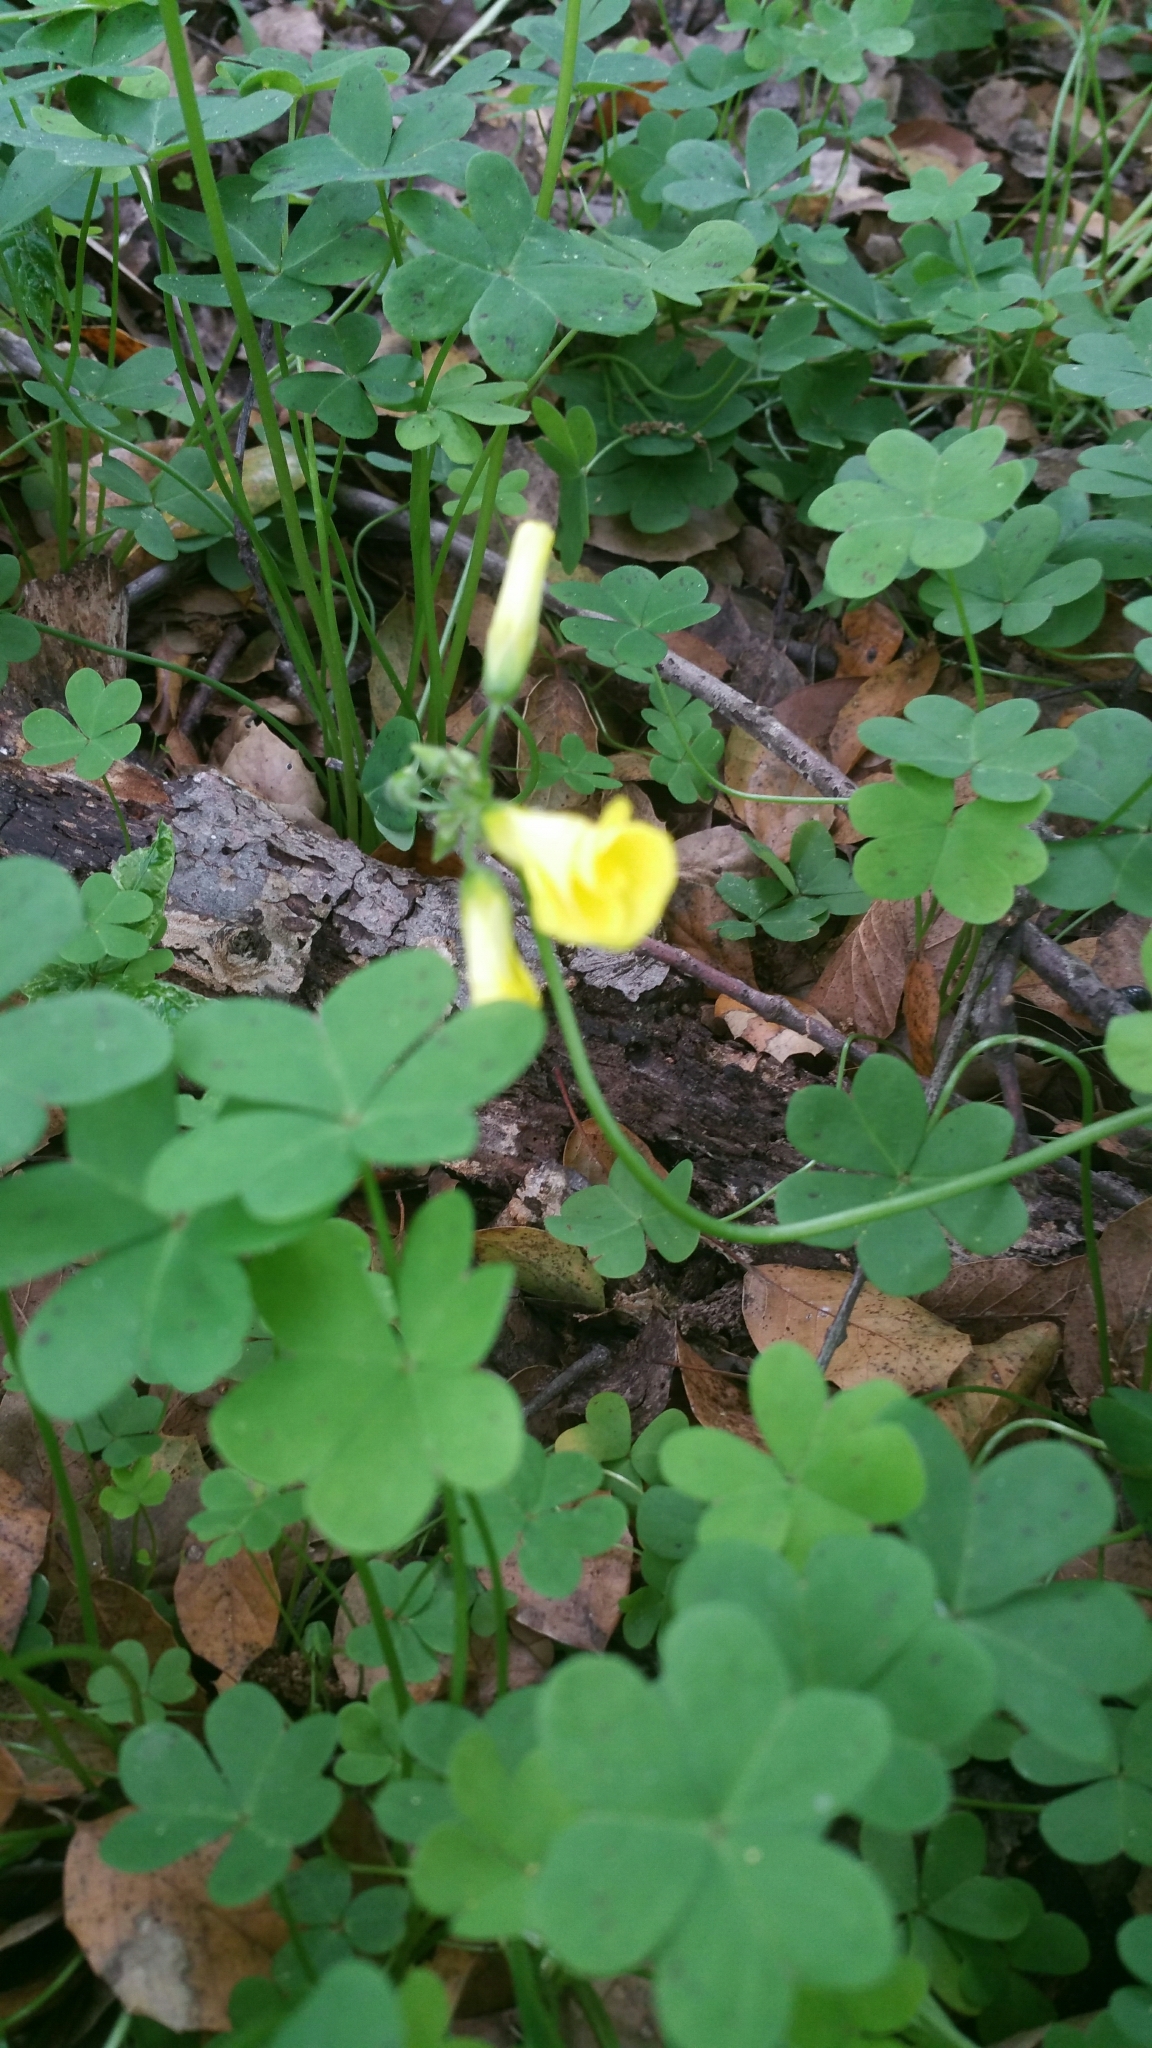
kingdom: Plantae
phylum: Tracheophyta
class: Magnoliopsida
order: Oxalidales
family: Oxalidaceae
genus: Oxalis
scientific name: Oxalis pes-caprae
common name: Bermuda-buttercup
